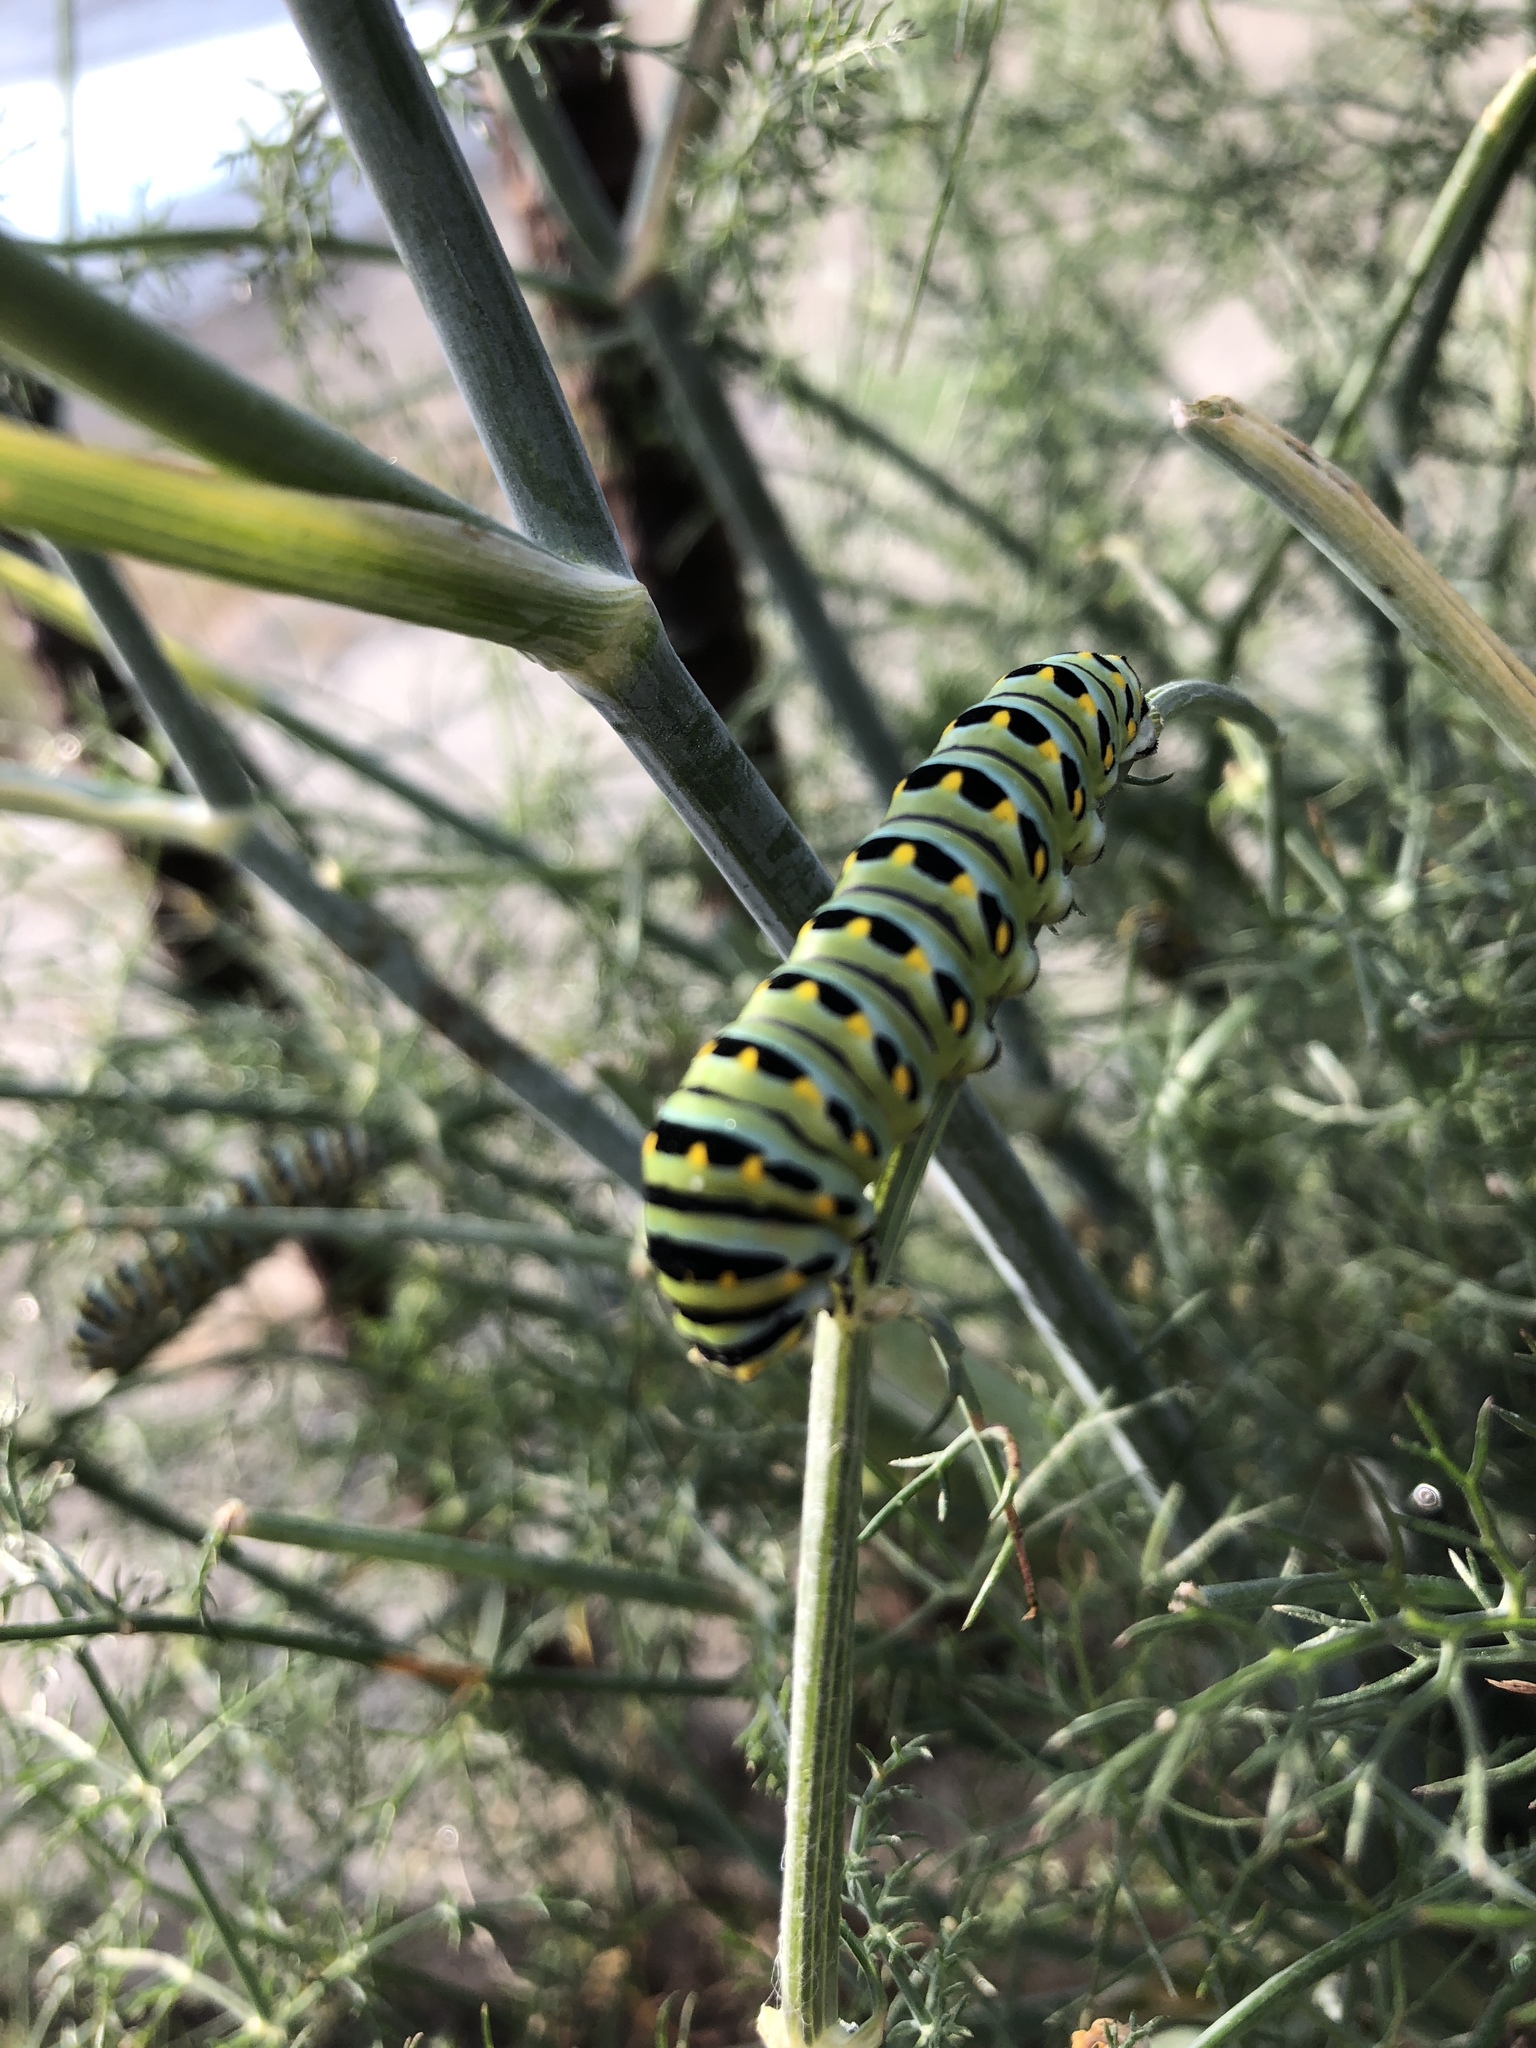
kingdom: Animalia
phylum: Arthropoda
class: Insecta
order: Lepidoptera
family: Papilionidae
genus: Papilio
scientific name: Papilio zelicaon
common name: Anise swallowtail
